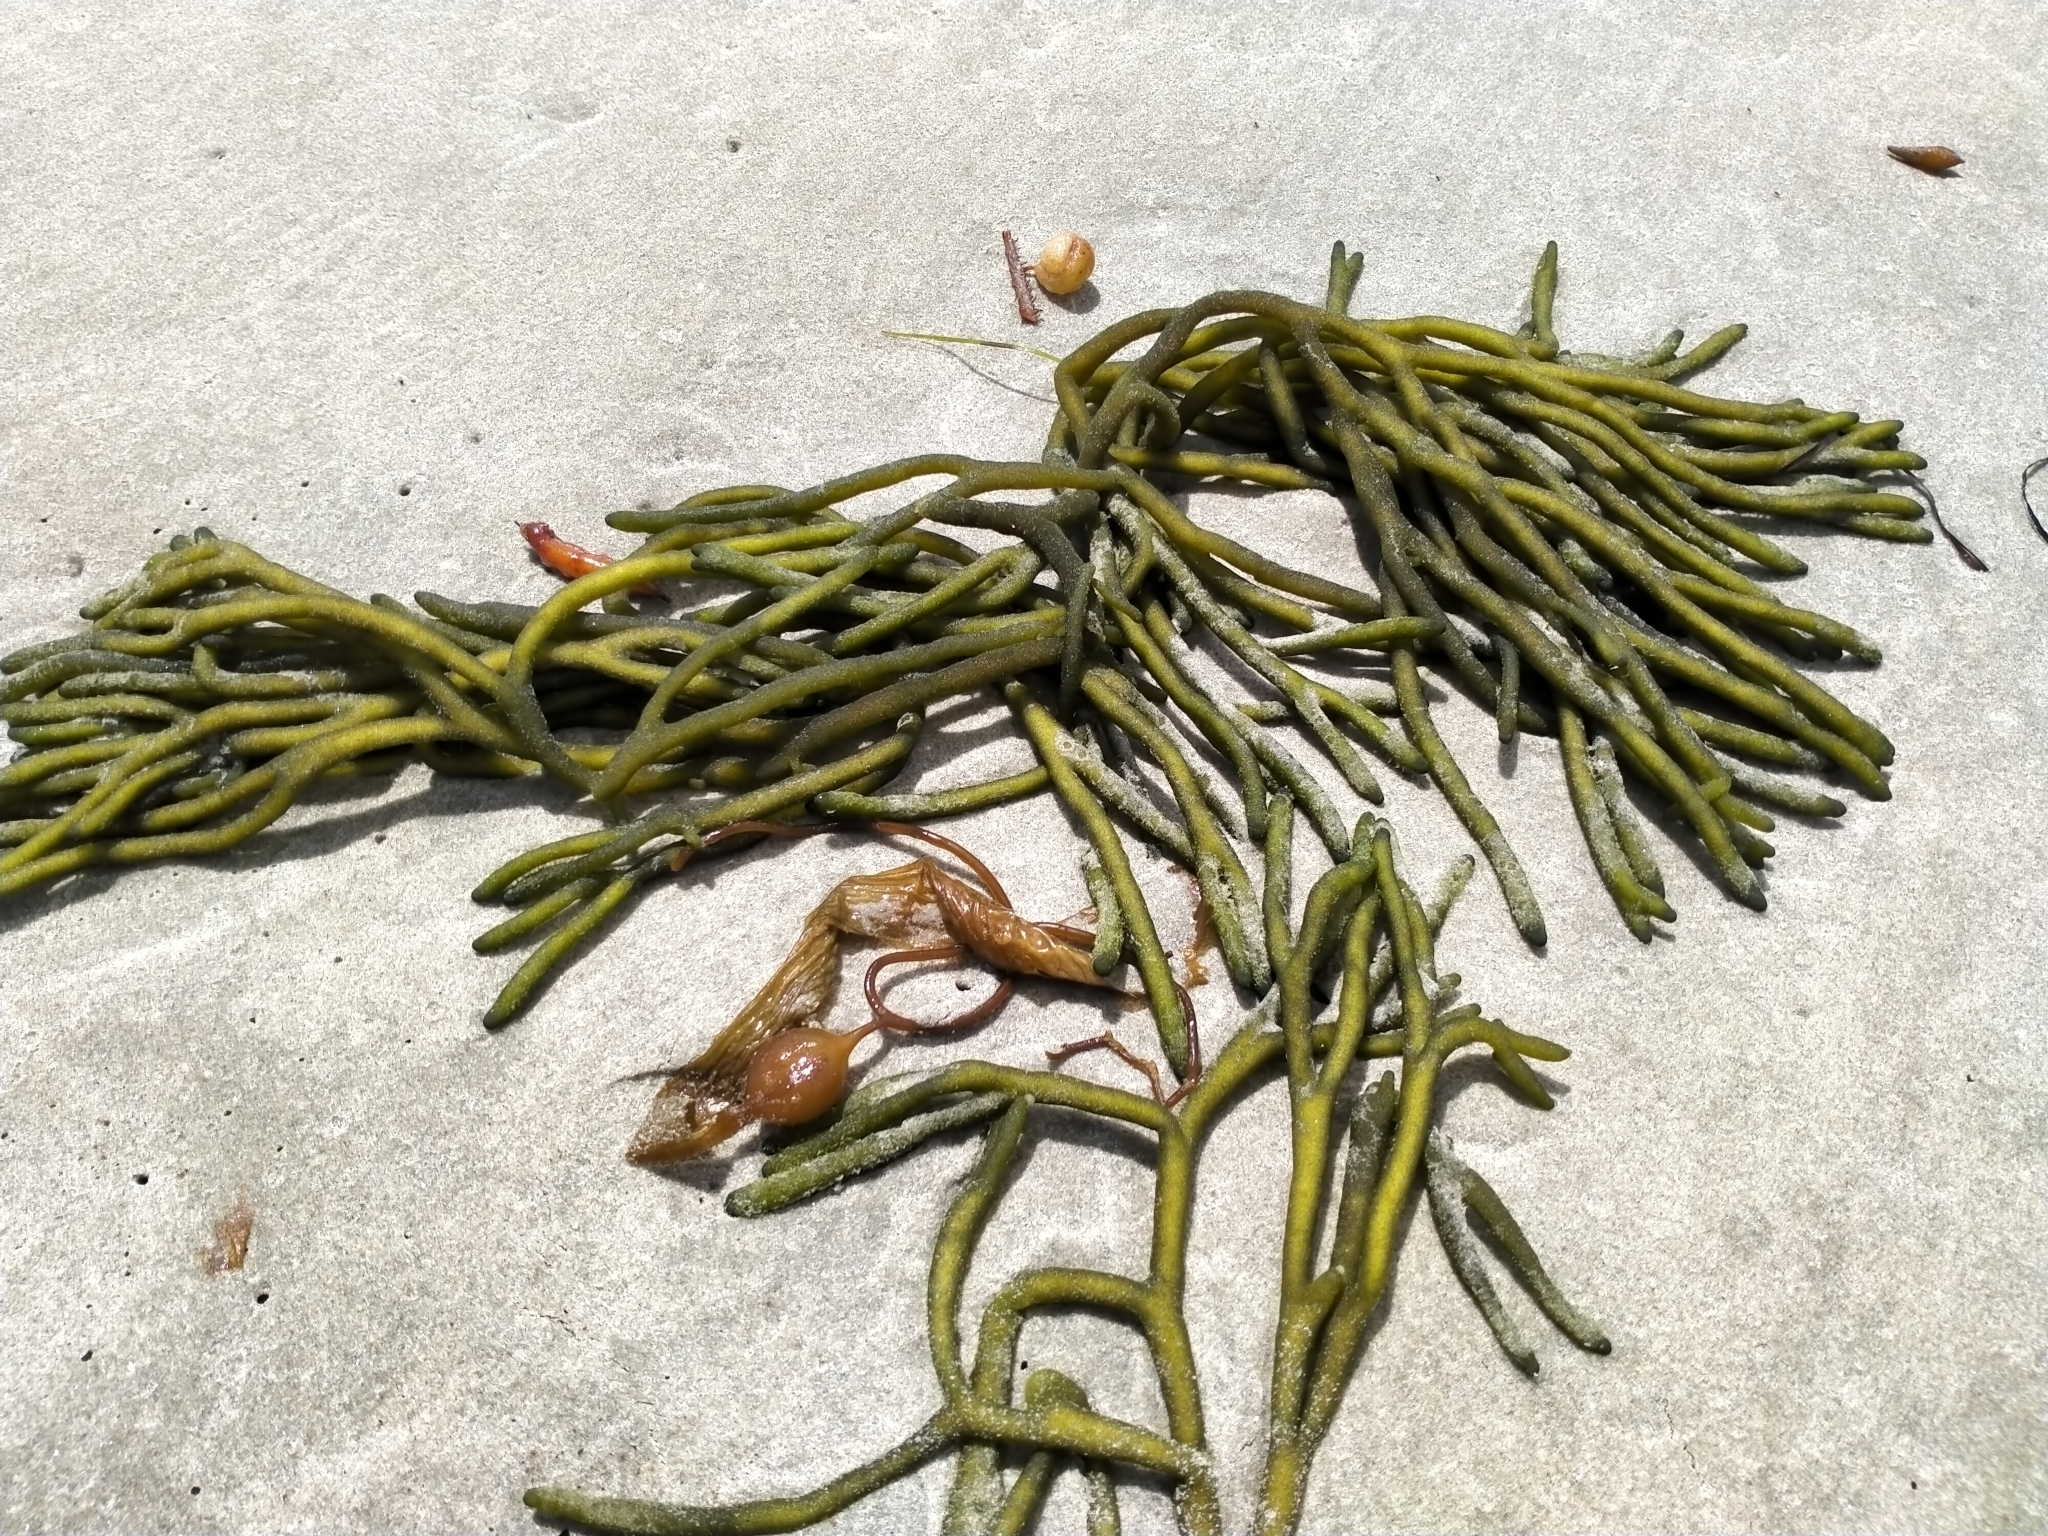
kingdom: Plantae
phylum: Chlorophyta
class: Ulvophyceae
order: Bryopsidales
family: Codiaceae
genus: Codium
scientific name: Codium fragile
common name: Dead man's fingers
